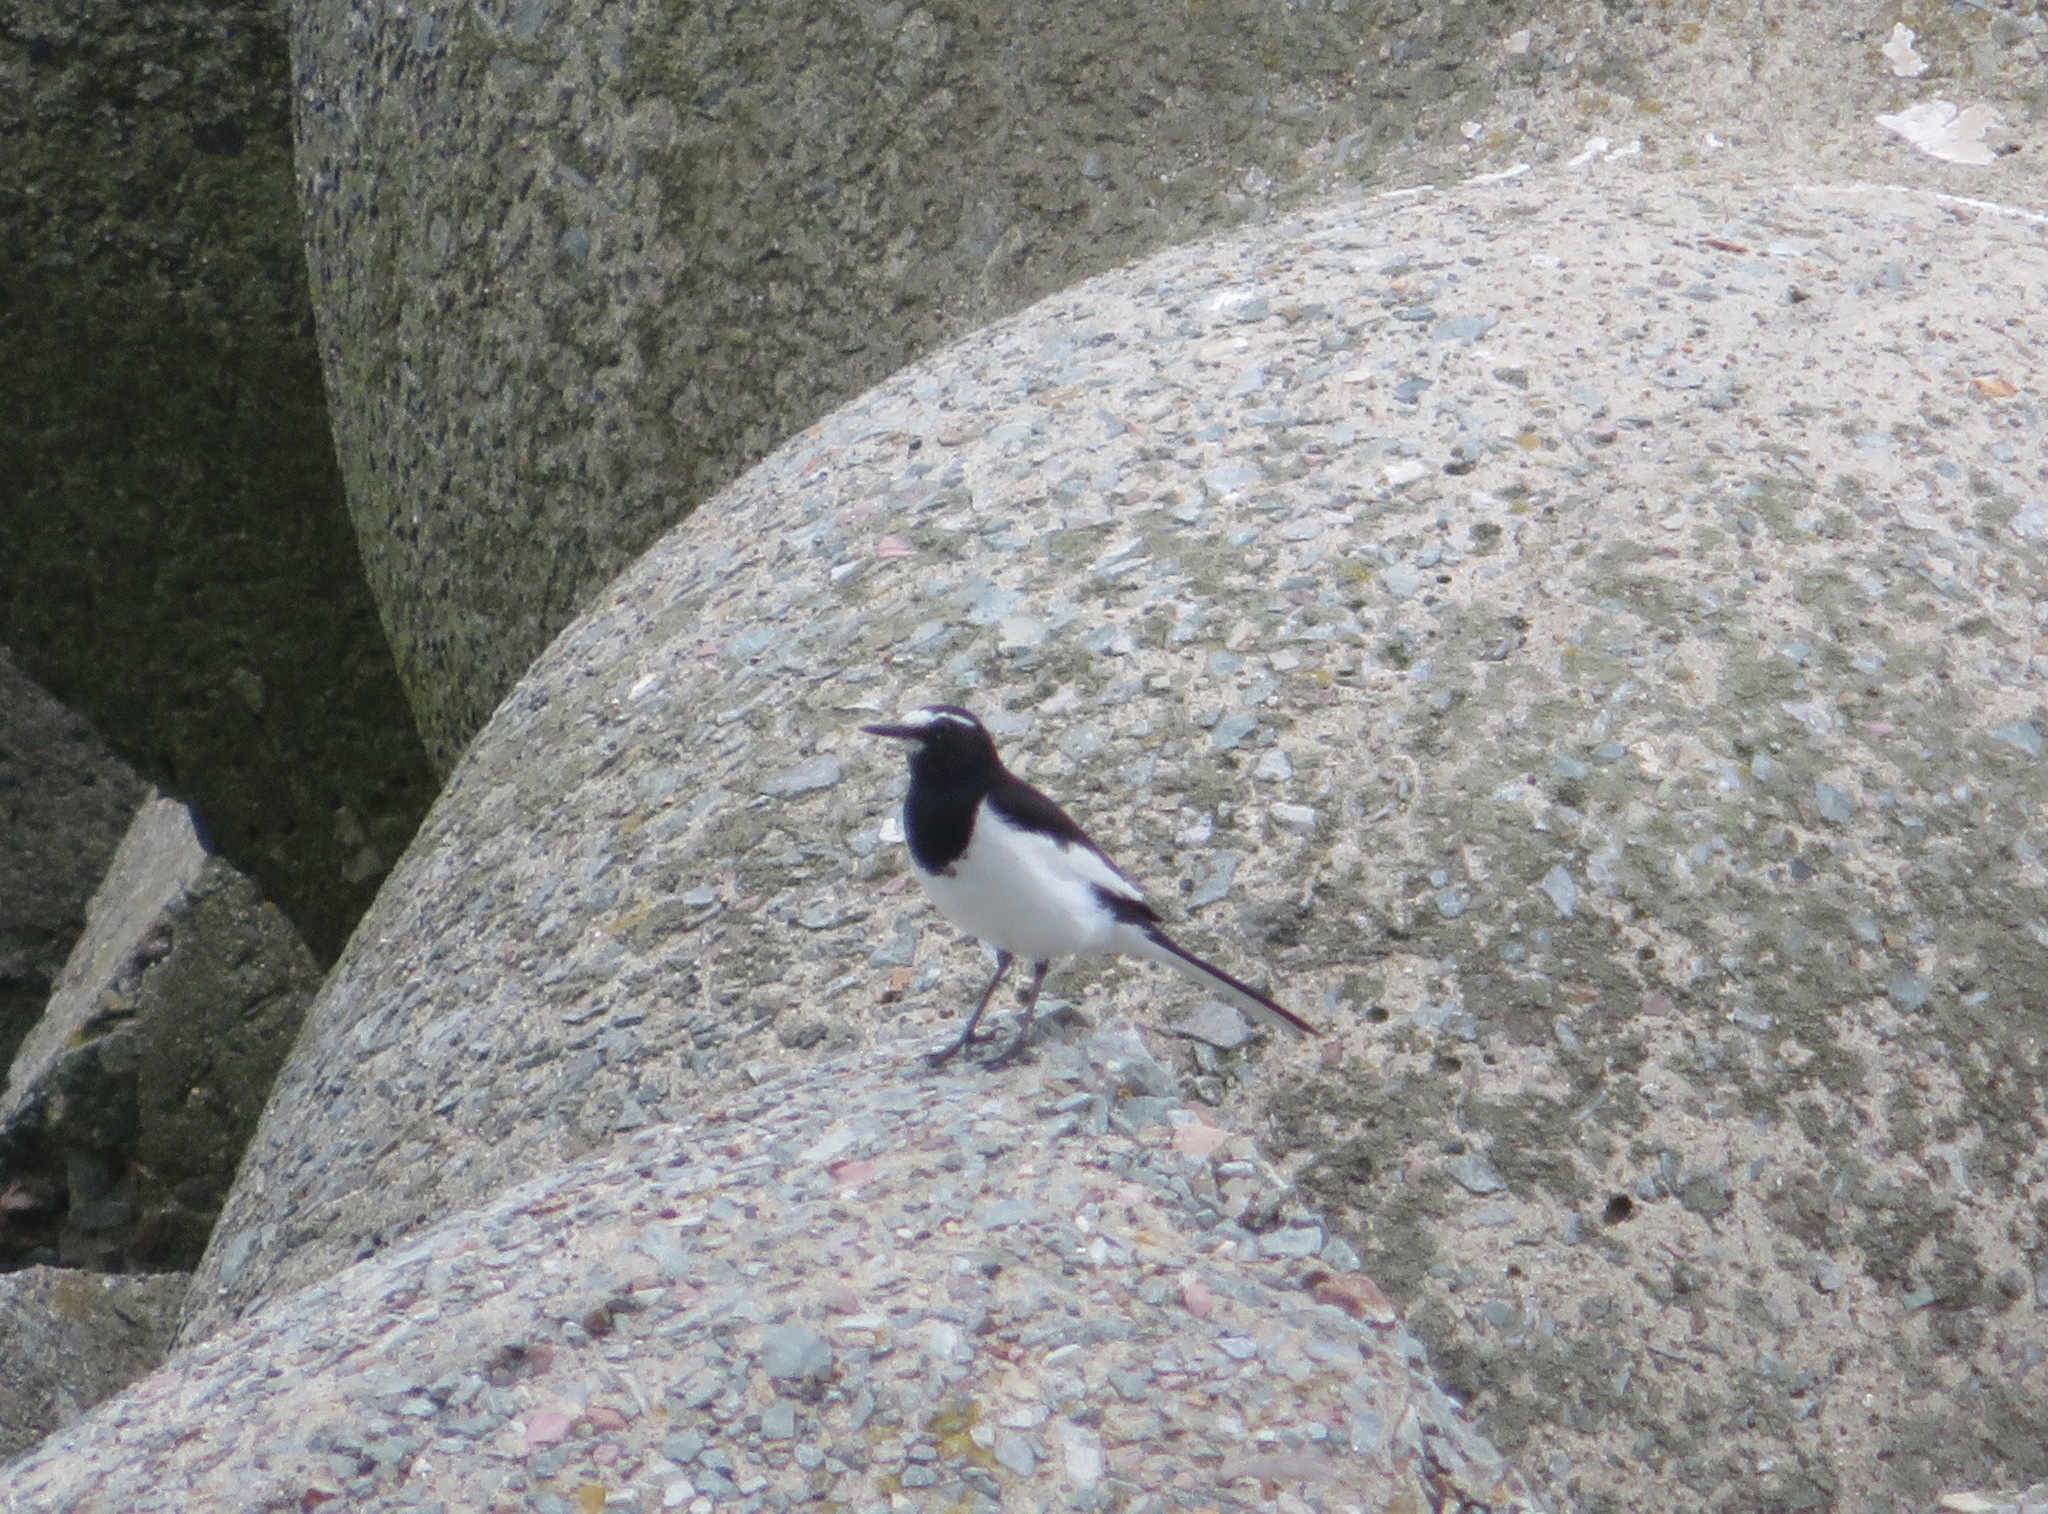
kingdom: Animalia
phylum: Chordata
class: Aves
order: Passeriformes
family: Motacillidae
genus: Motacilla
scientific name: Motacilla grandis
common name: Japanese wagtail
